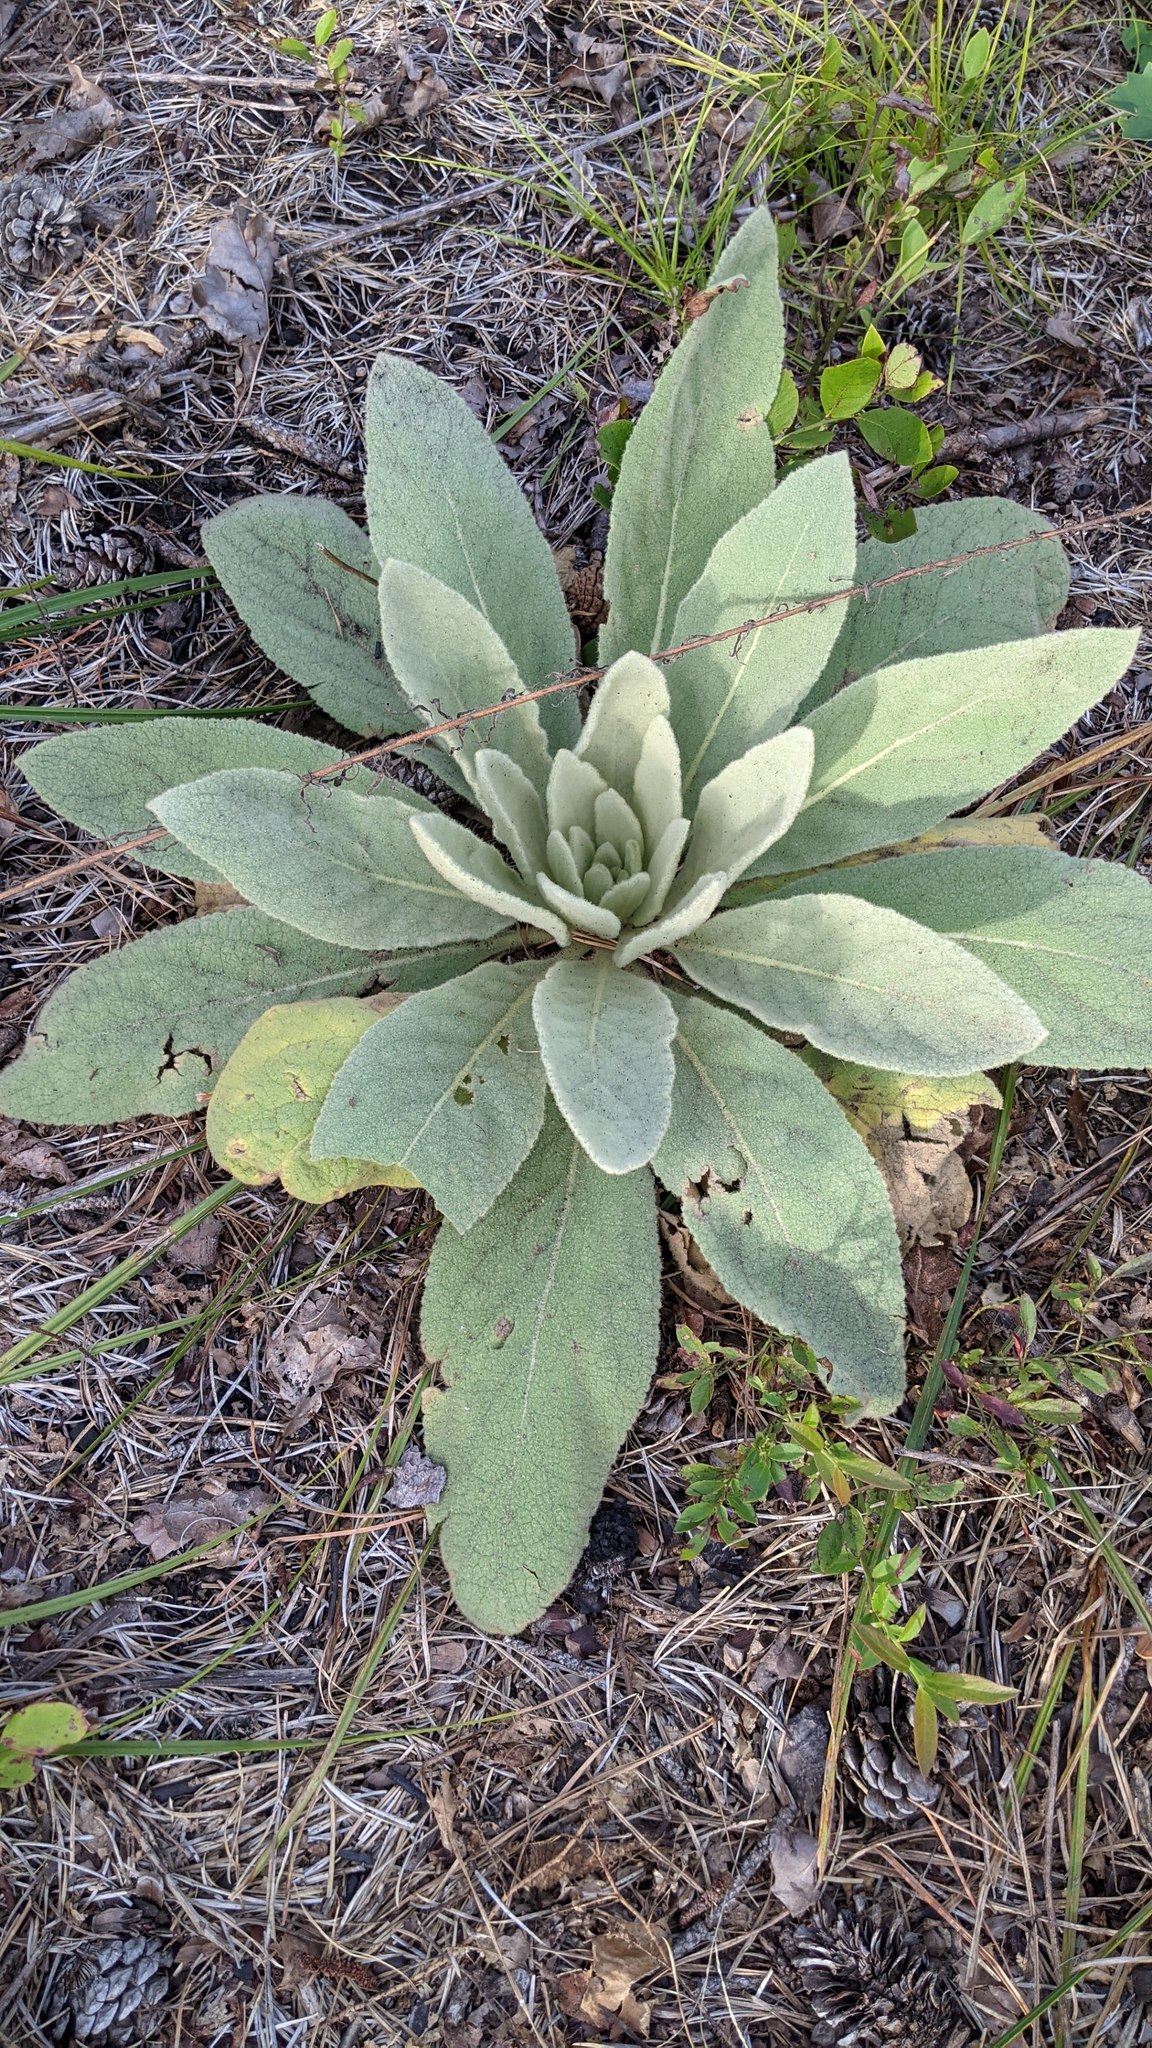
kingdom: Plantae
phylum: Tracheophyta
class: Magnoliopsida
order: Lamiales
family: Scrophulariaceae
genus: Verbascum
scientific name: Verbascum thapsus
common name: Common mullein
